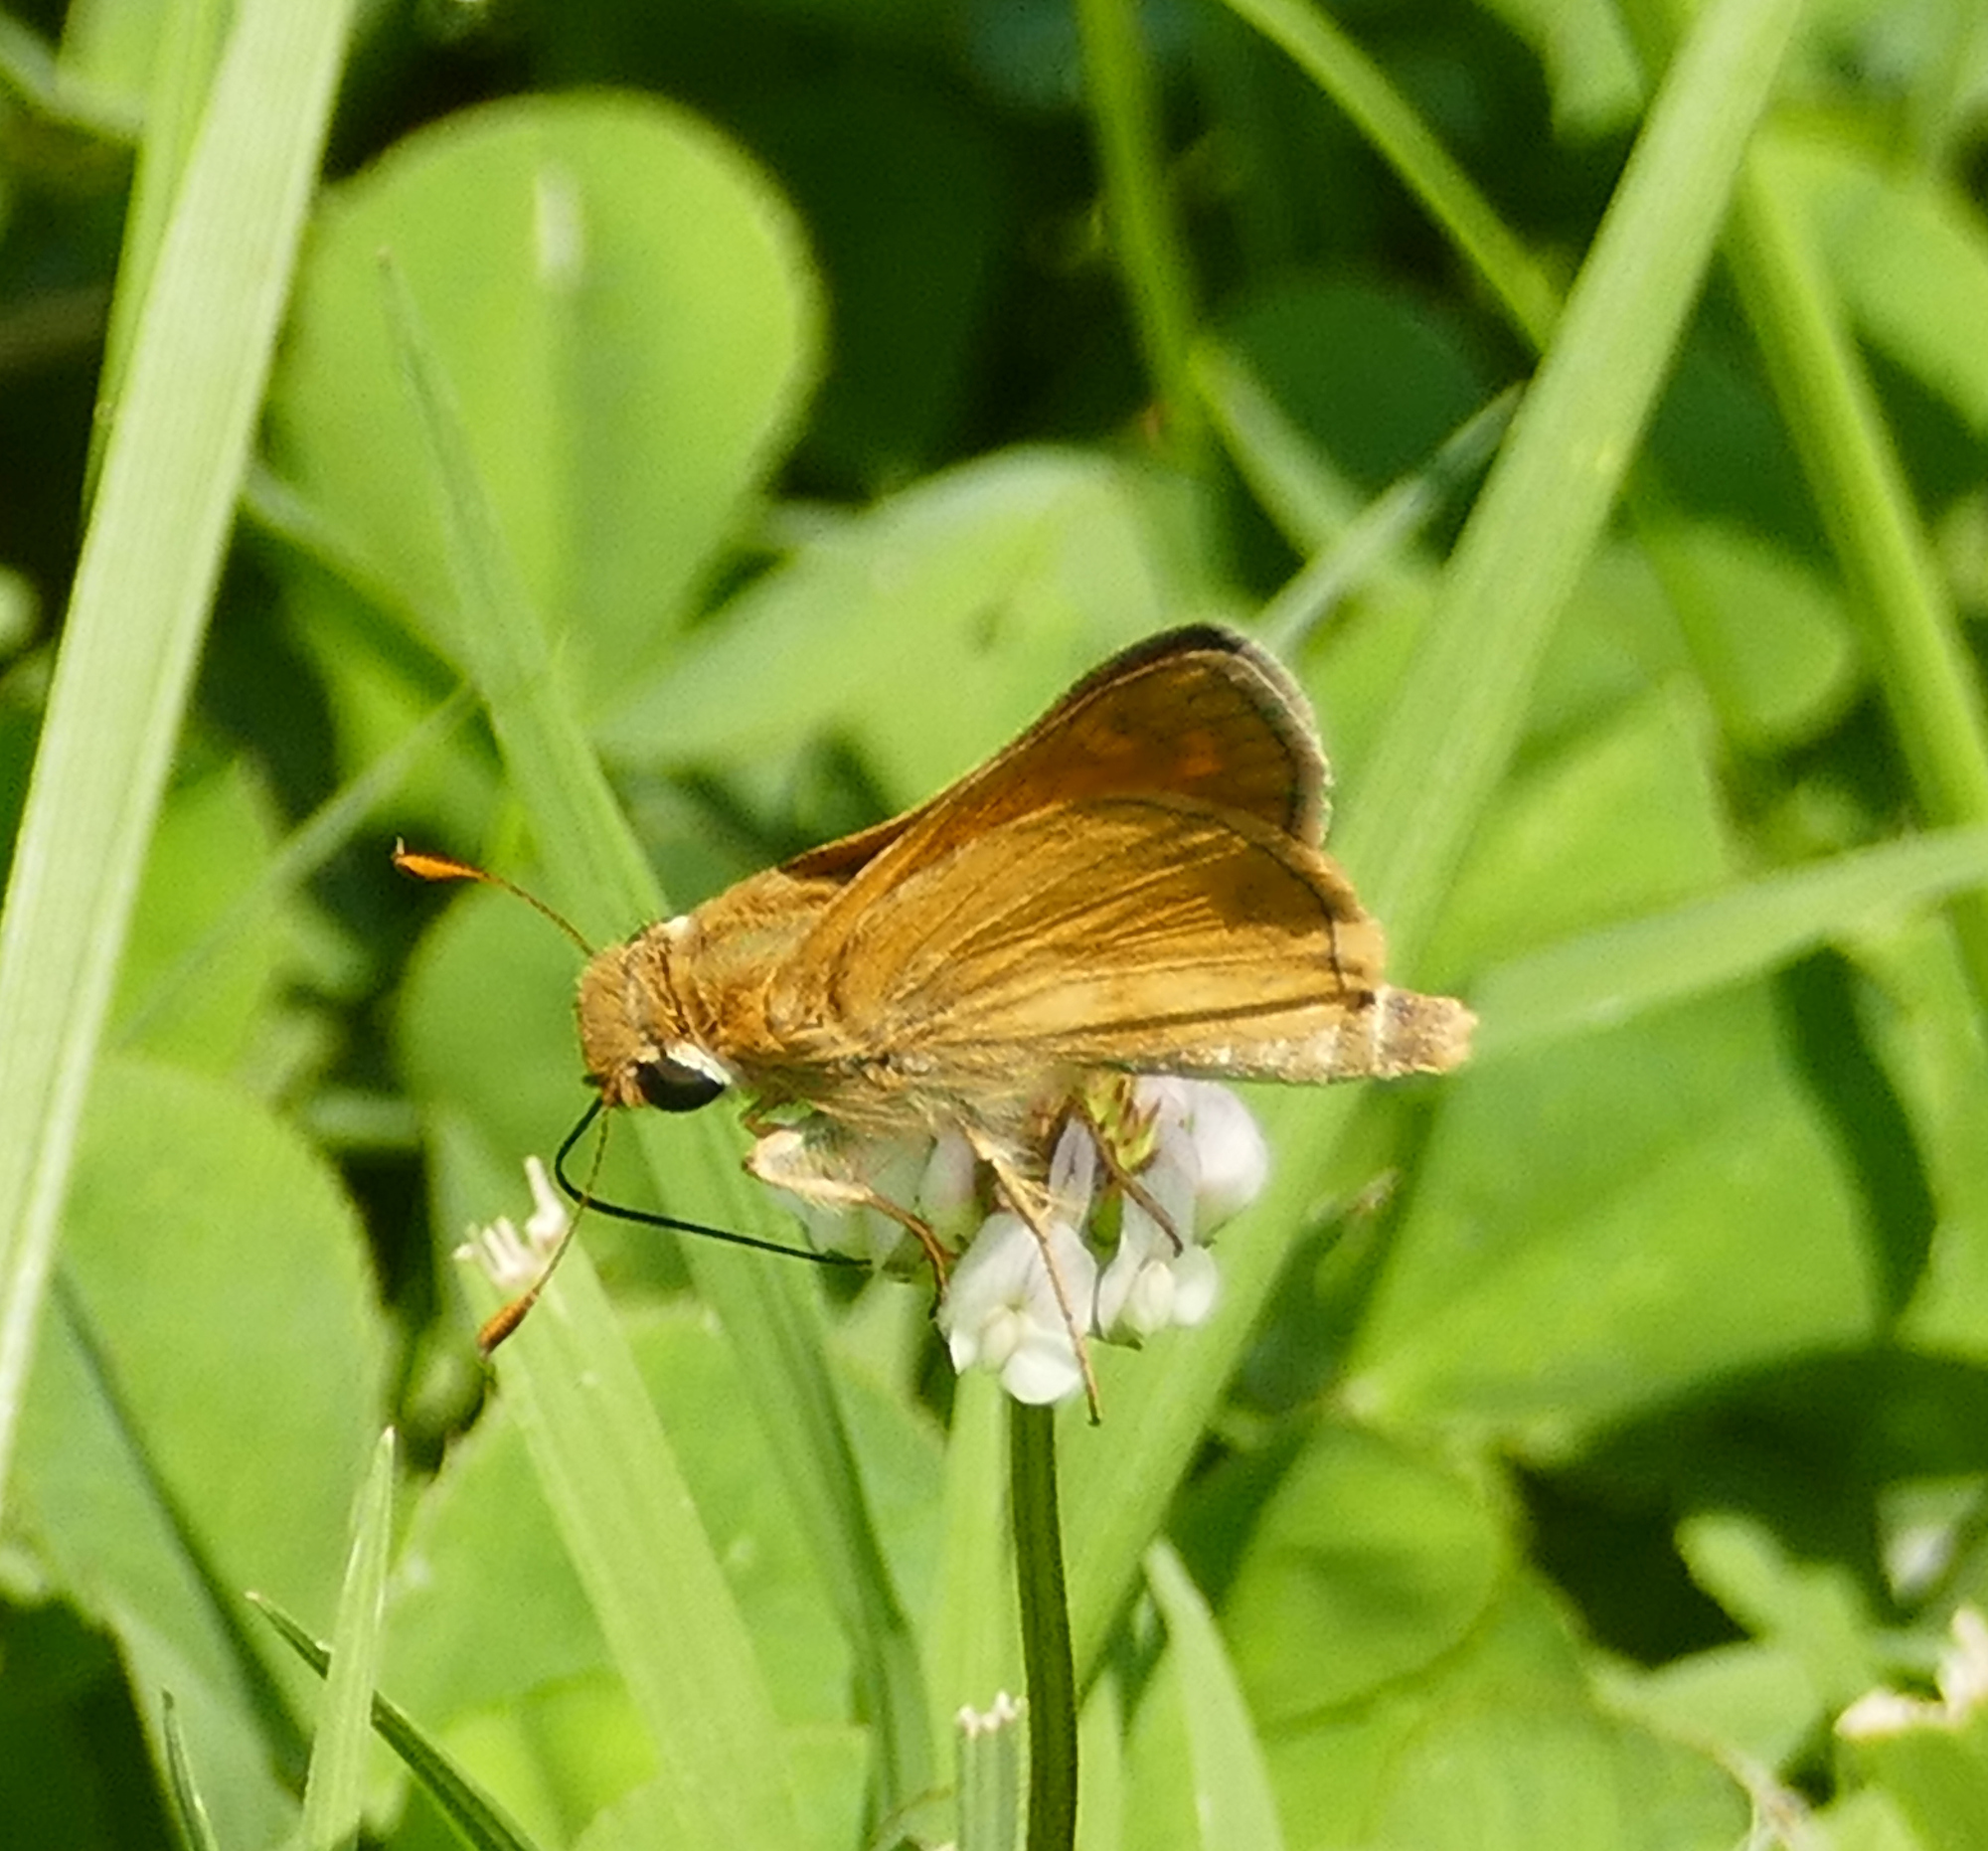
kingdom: Animalia
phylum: Arthropoda
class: Insecta
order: Lepidoptera
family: Hesperiidae
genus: Atalopedes
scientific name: Atalopedes
